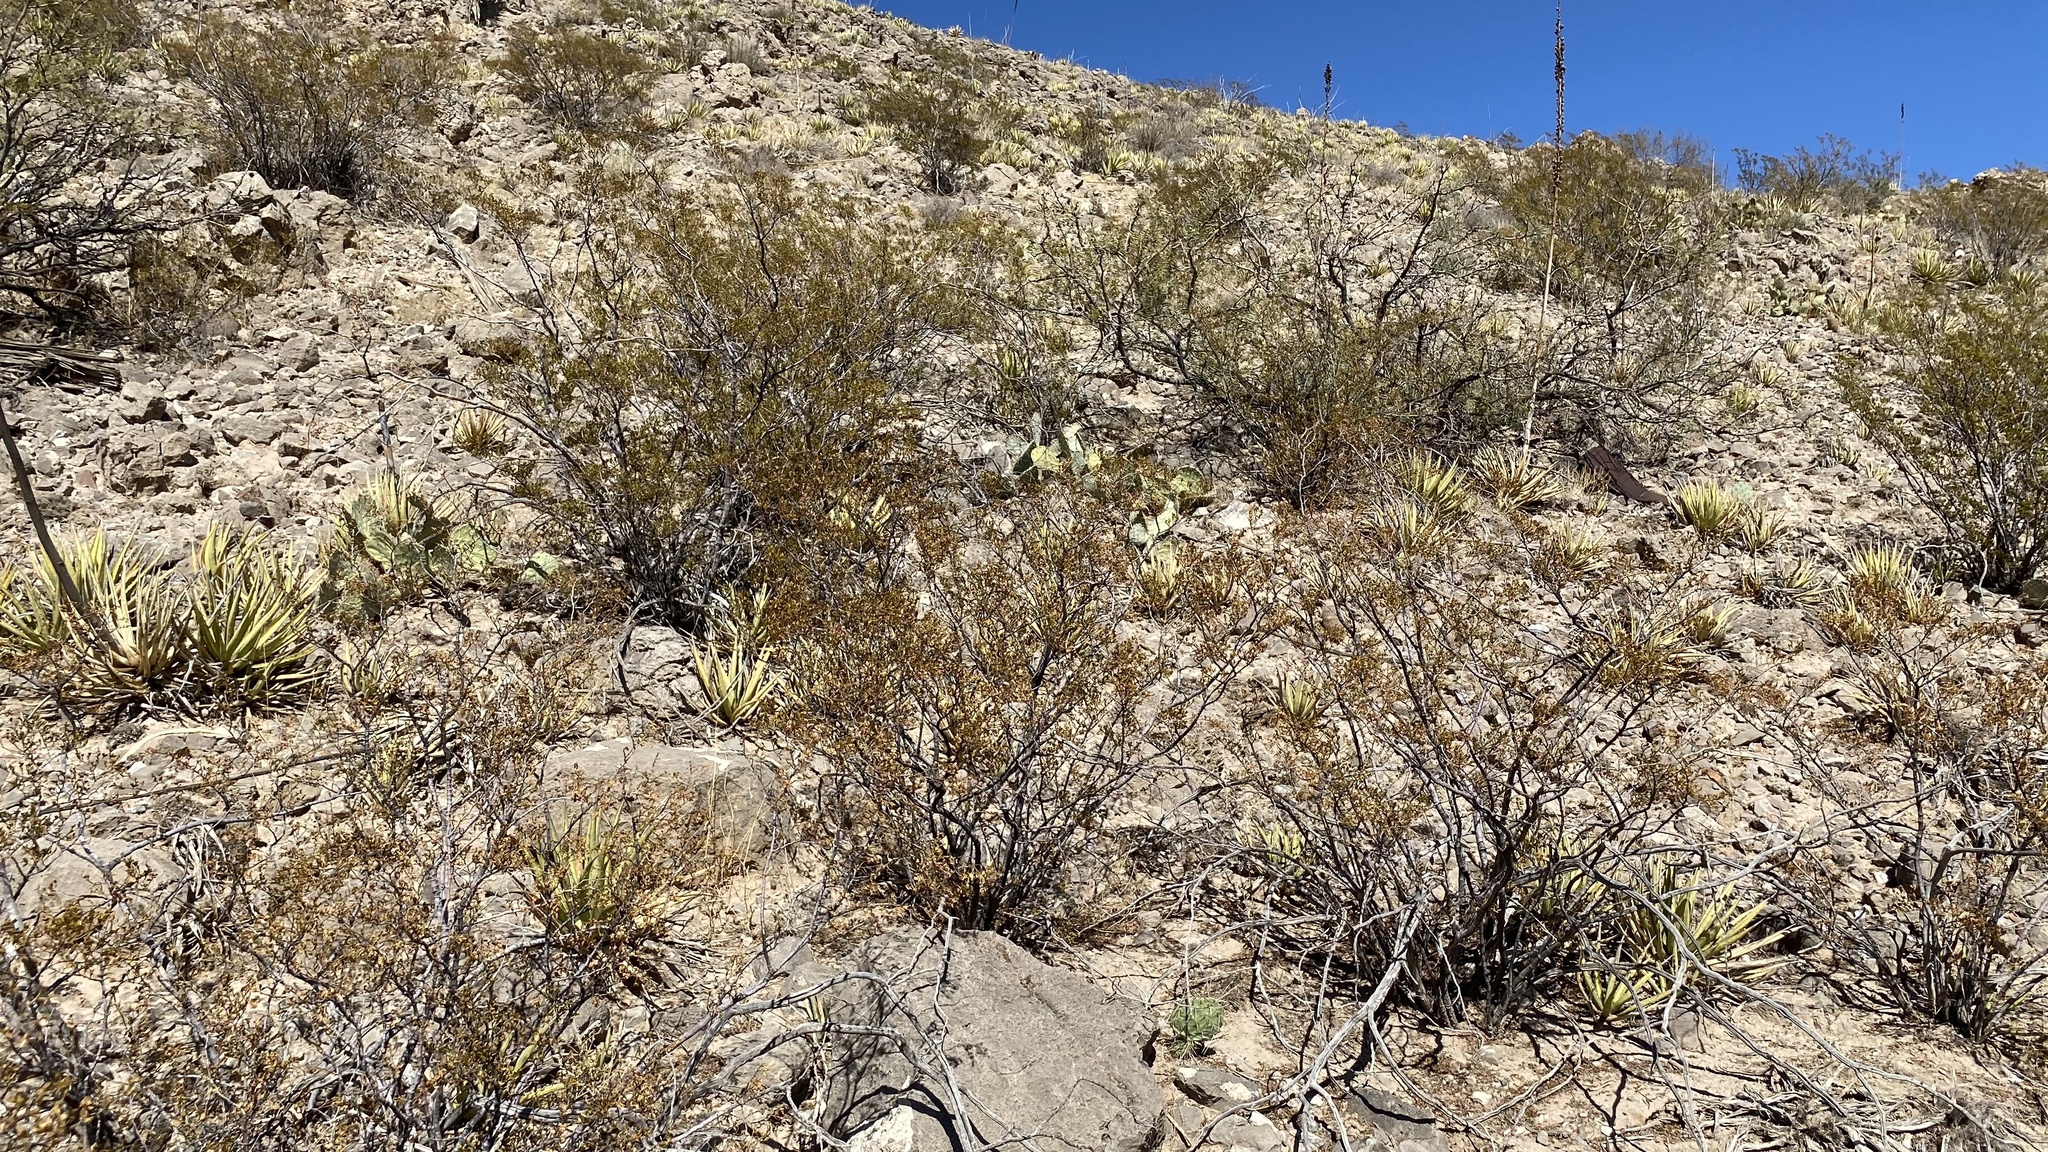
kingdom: Plantae
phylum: Tracheophyta
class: Magnoliopsida
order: Zygophyllales
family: Zygophyllaceae
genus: Larrea
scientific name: Larrea tridentata
